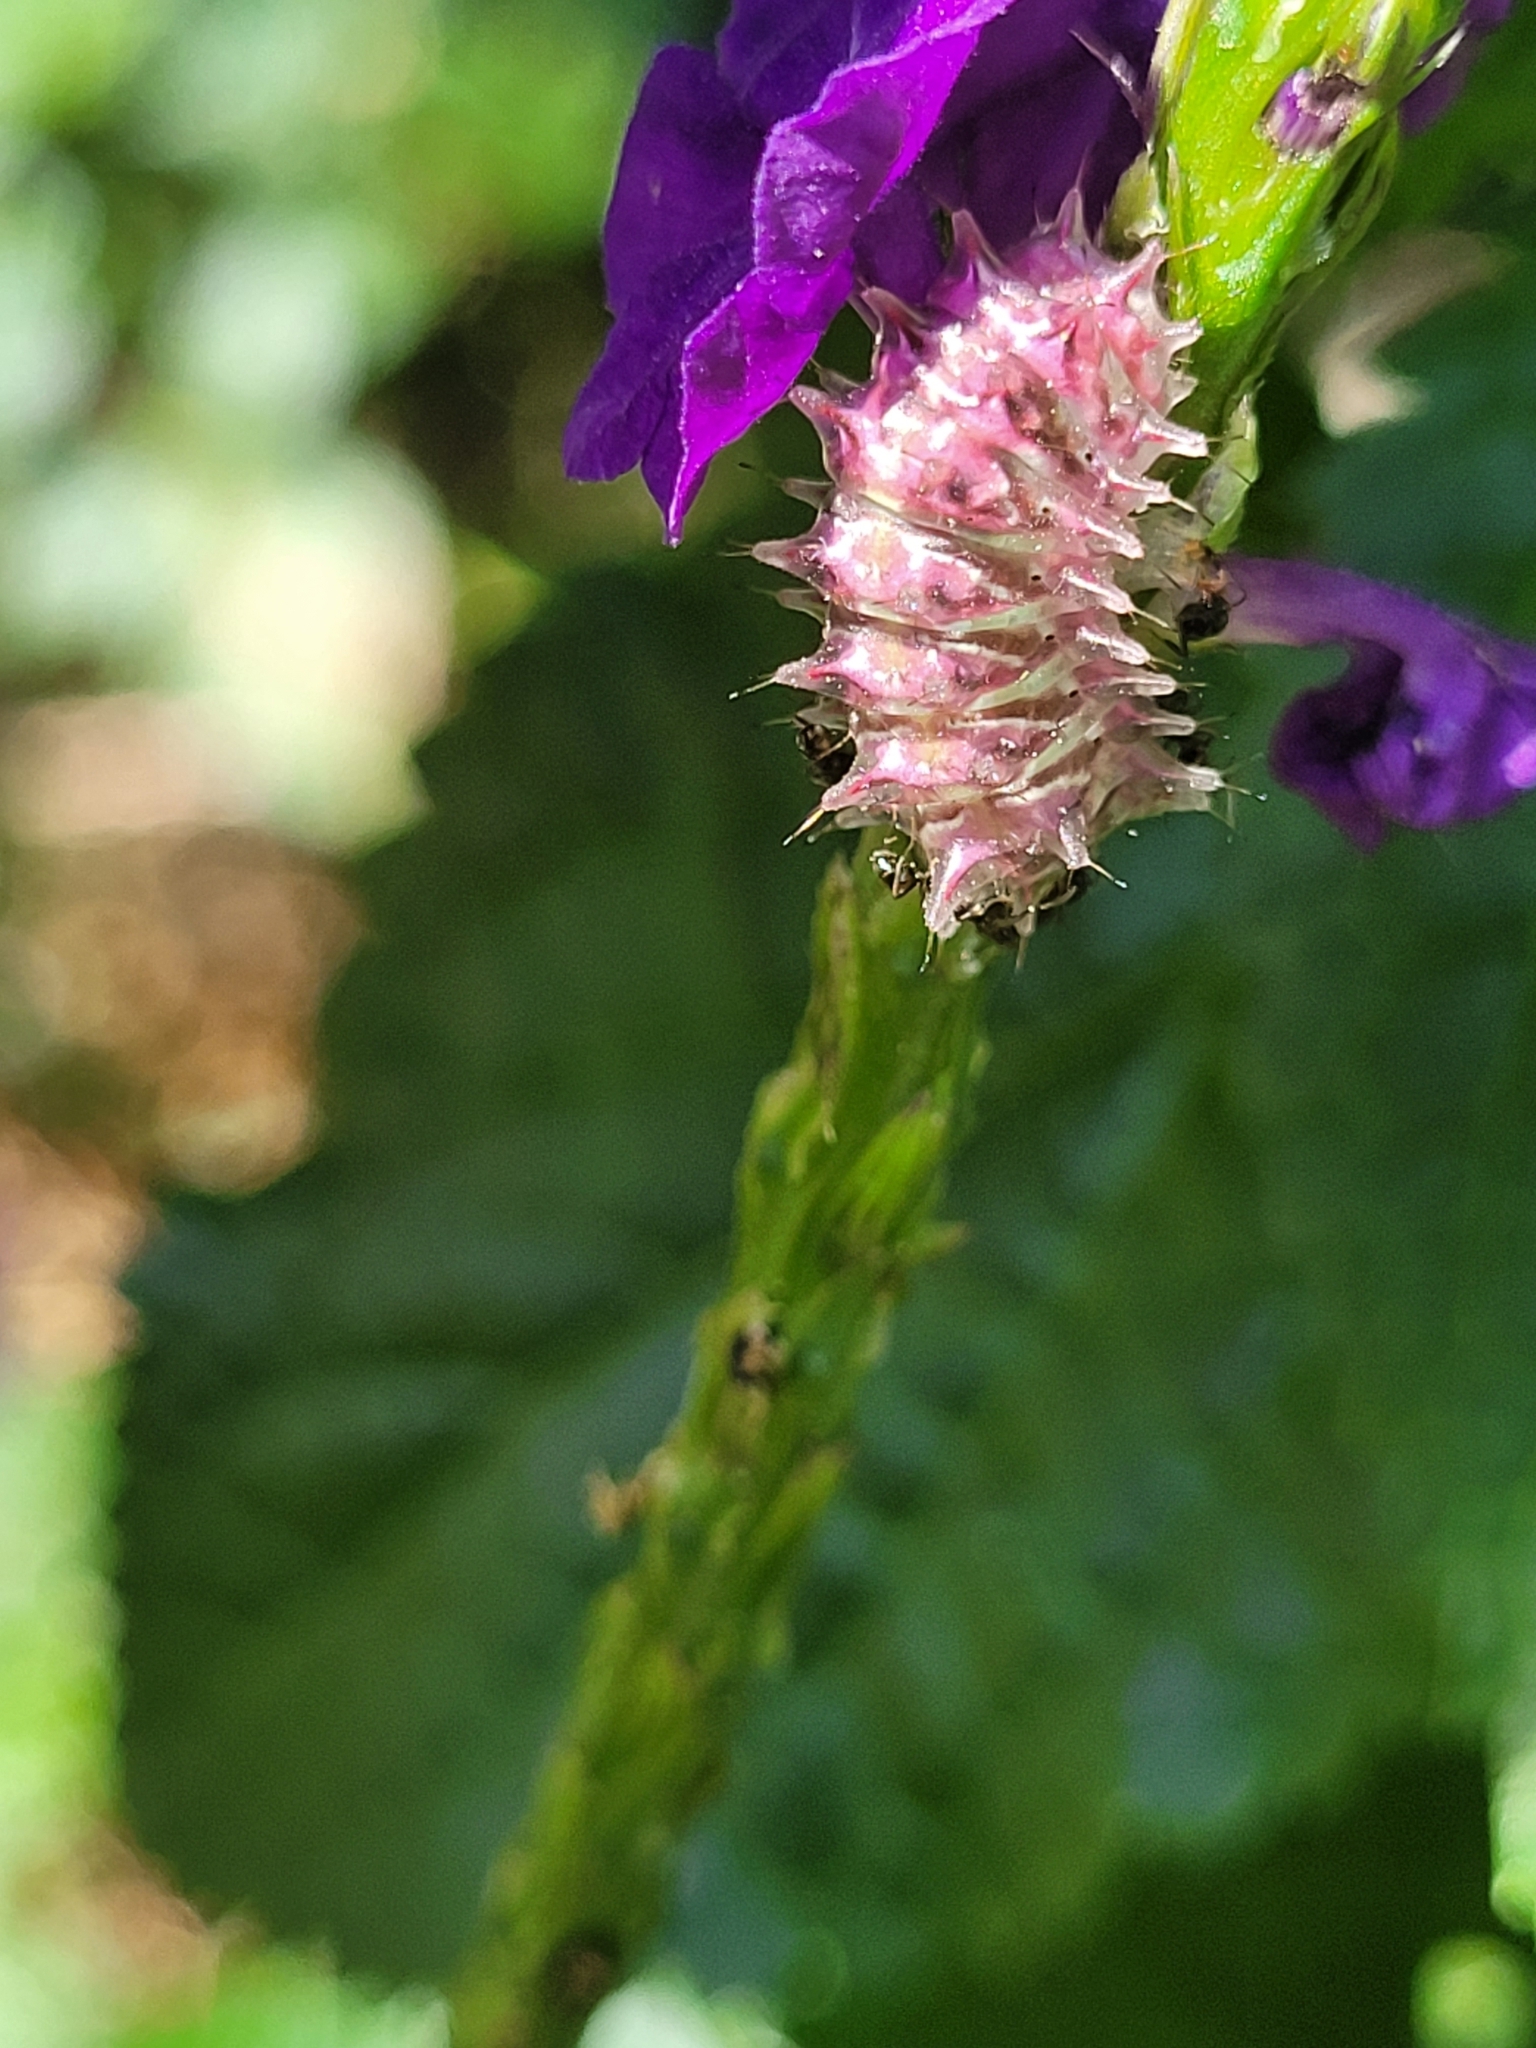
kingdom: Animalia
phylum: Arthropoda
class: Insecta
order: Lepidoptera
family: Lycaenidae
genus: Rekoa
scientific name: Rekoa palegon
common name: Gold-bordered hairstreak
